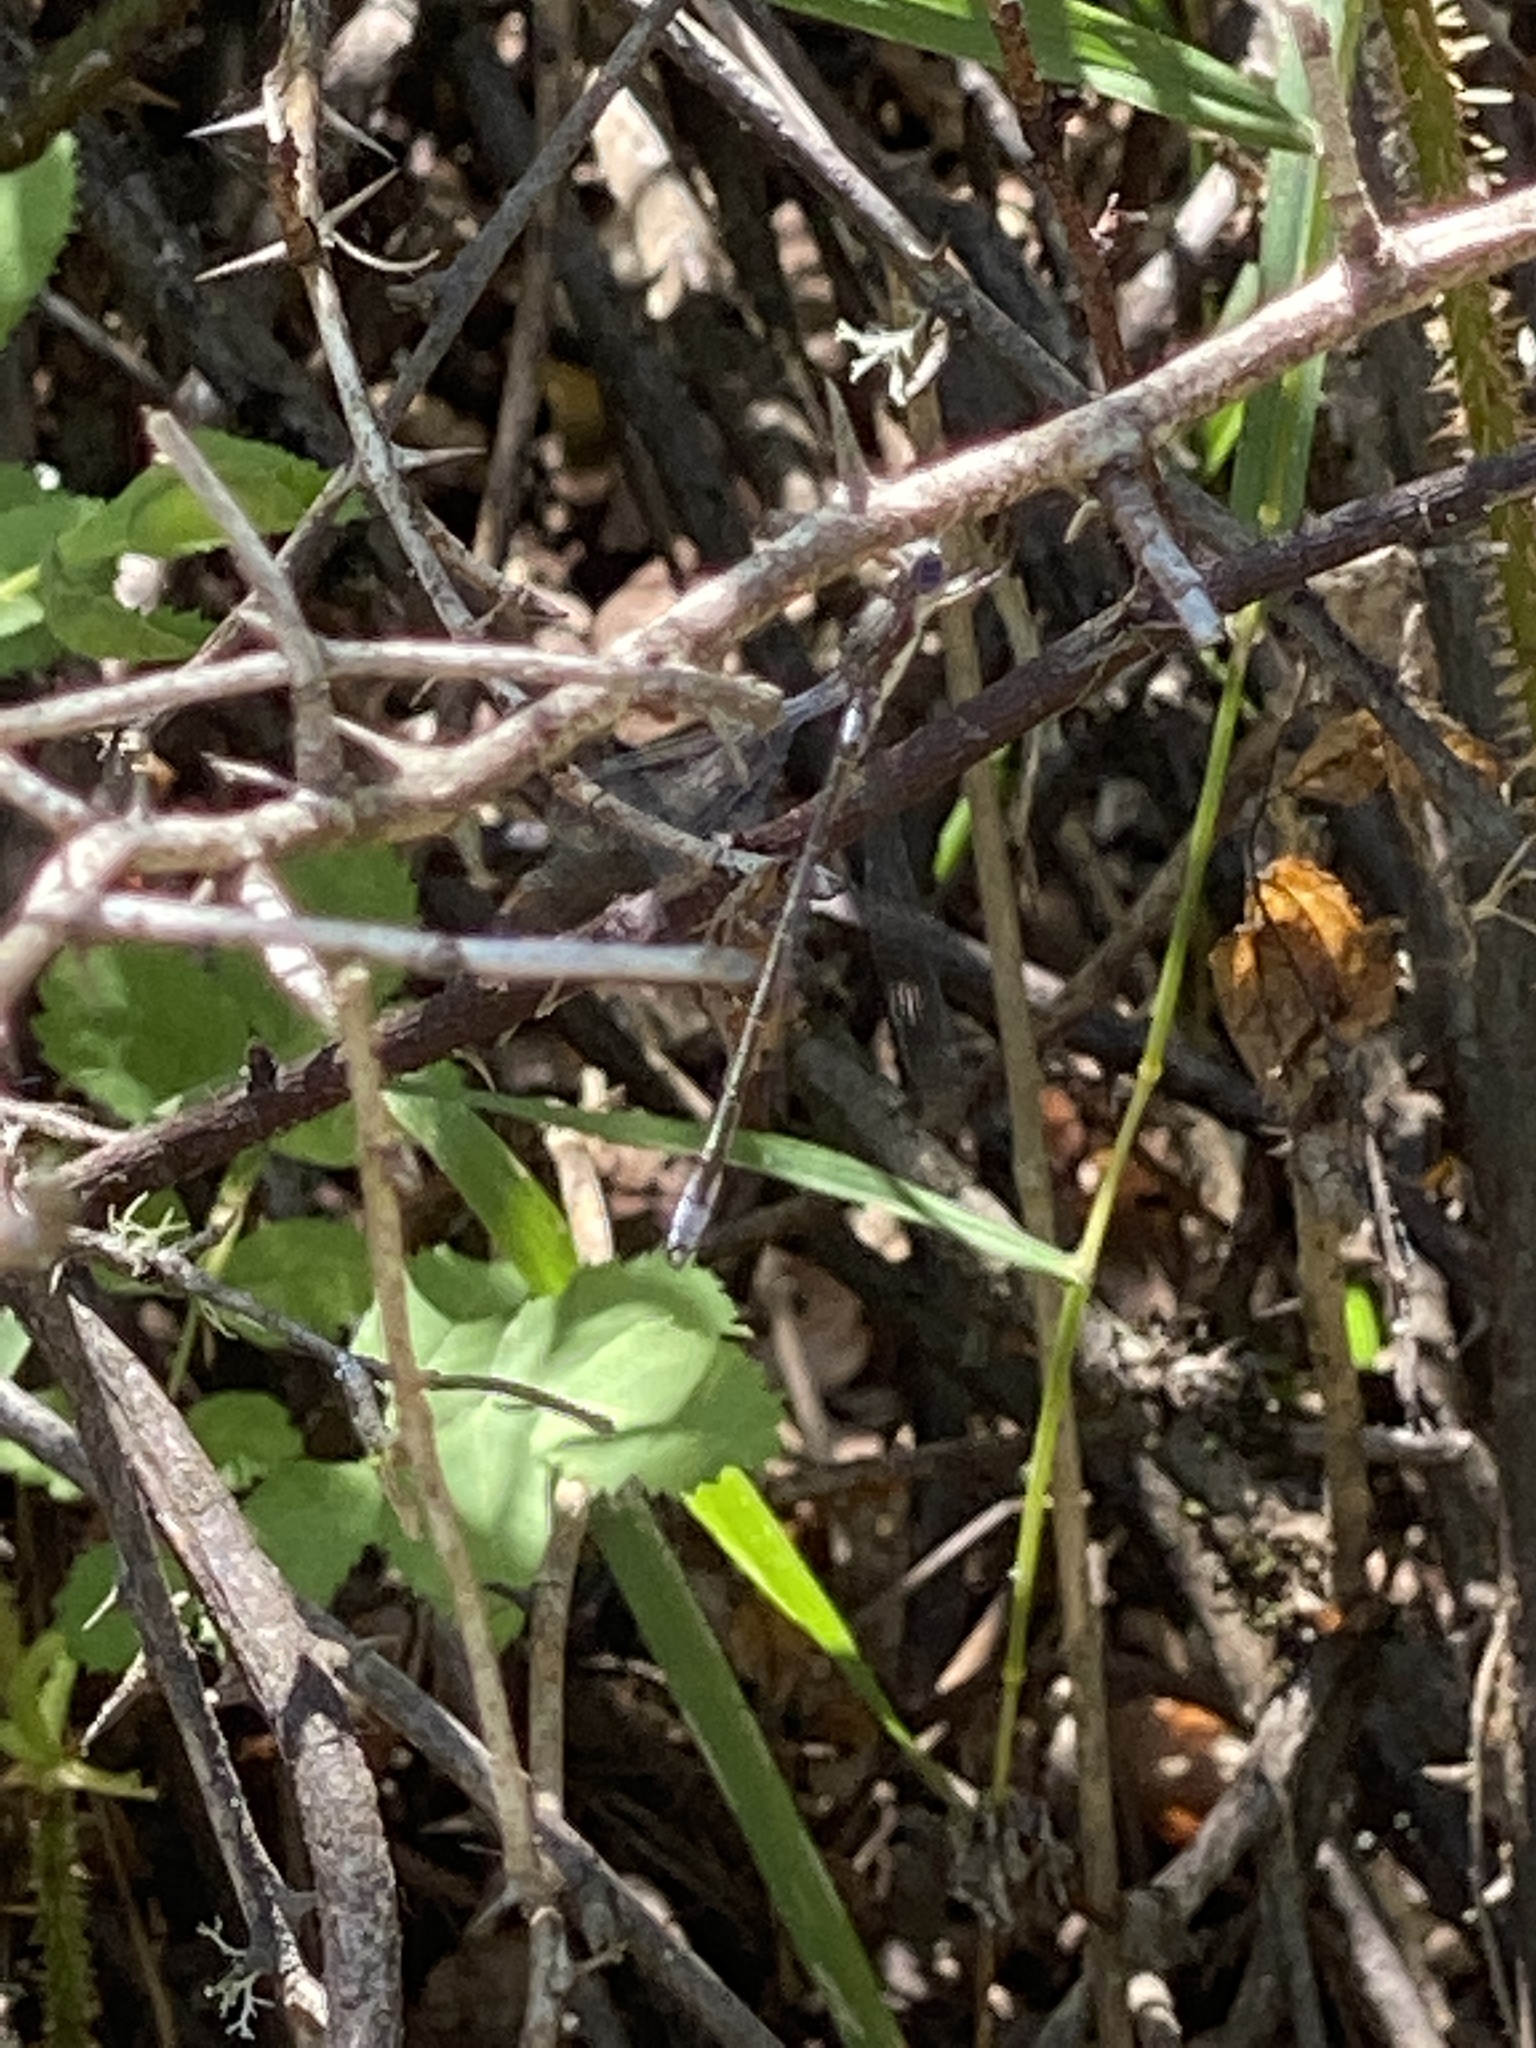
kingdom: Animalia
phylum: Arthropoda
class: Insecta
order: Odonata
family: Lestidae
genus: Lestes
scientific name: Lestes congener
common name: Spotted spreadwing
